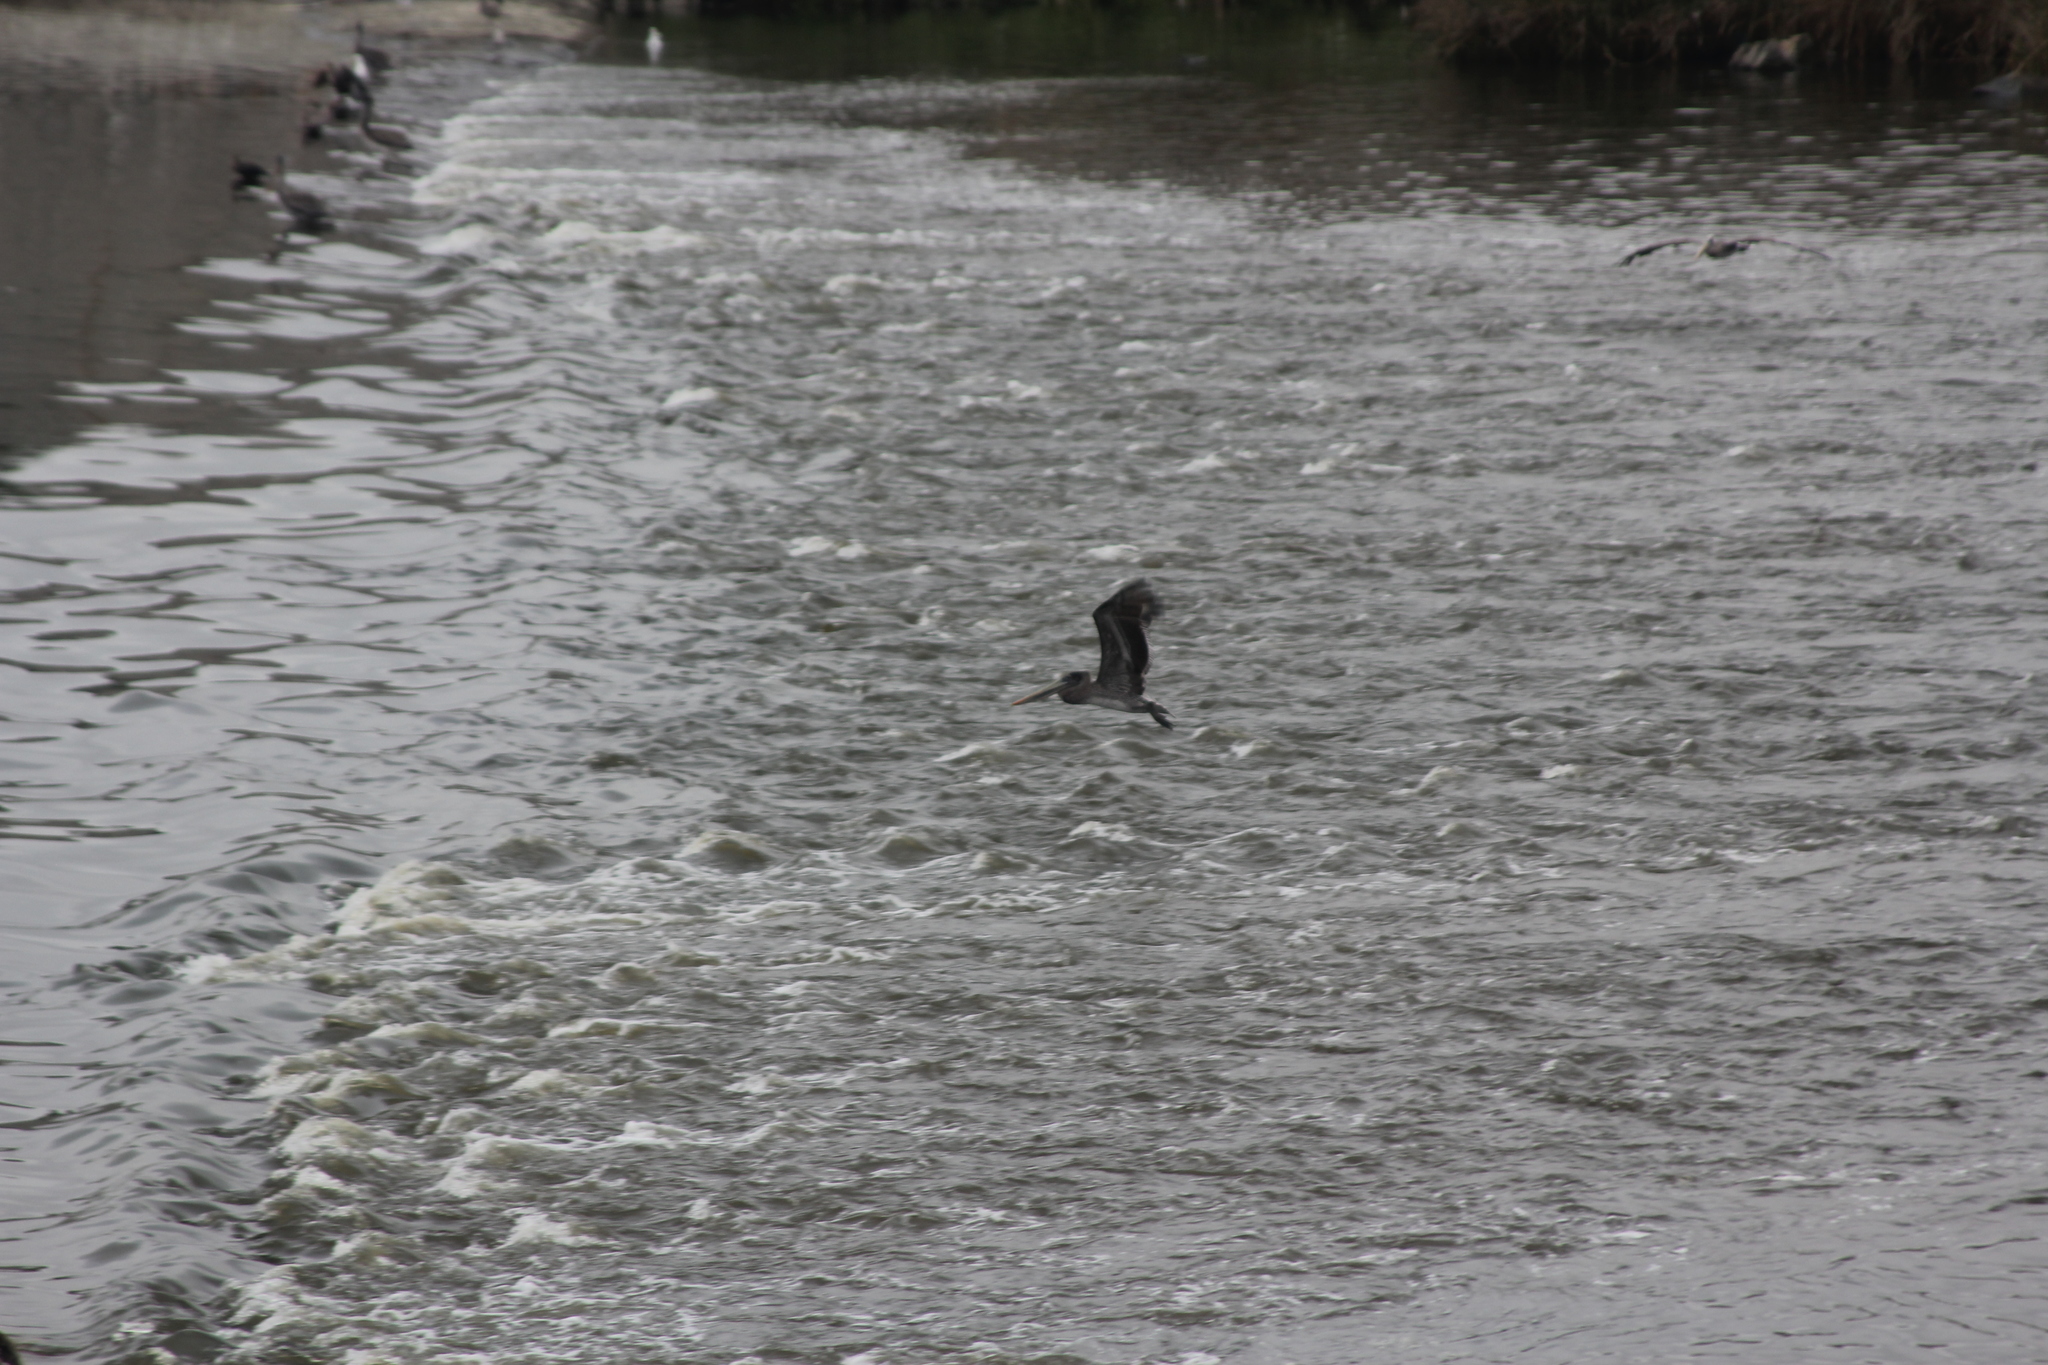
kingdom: Animalia
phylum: Chordata
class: Aves
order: Pelecaniformes
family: Pelecanidae
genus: Pelecanus
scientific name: Pelecanus occidentalis
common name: Brown pelican
